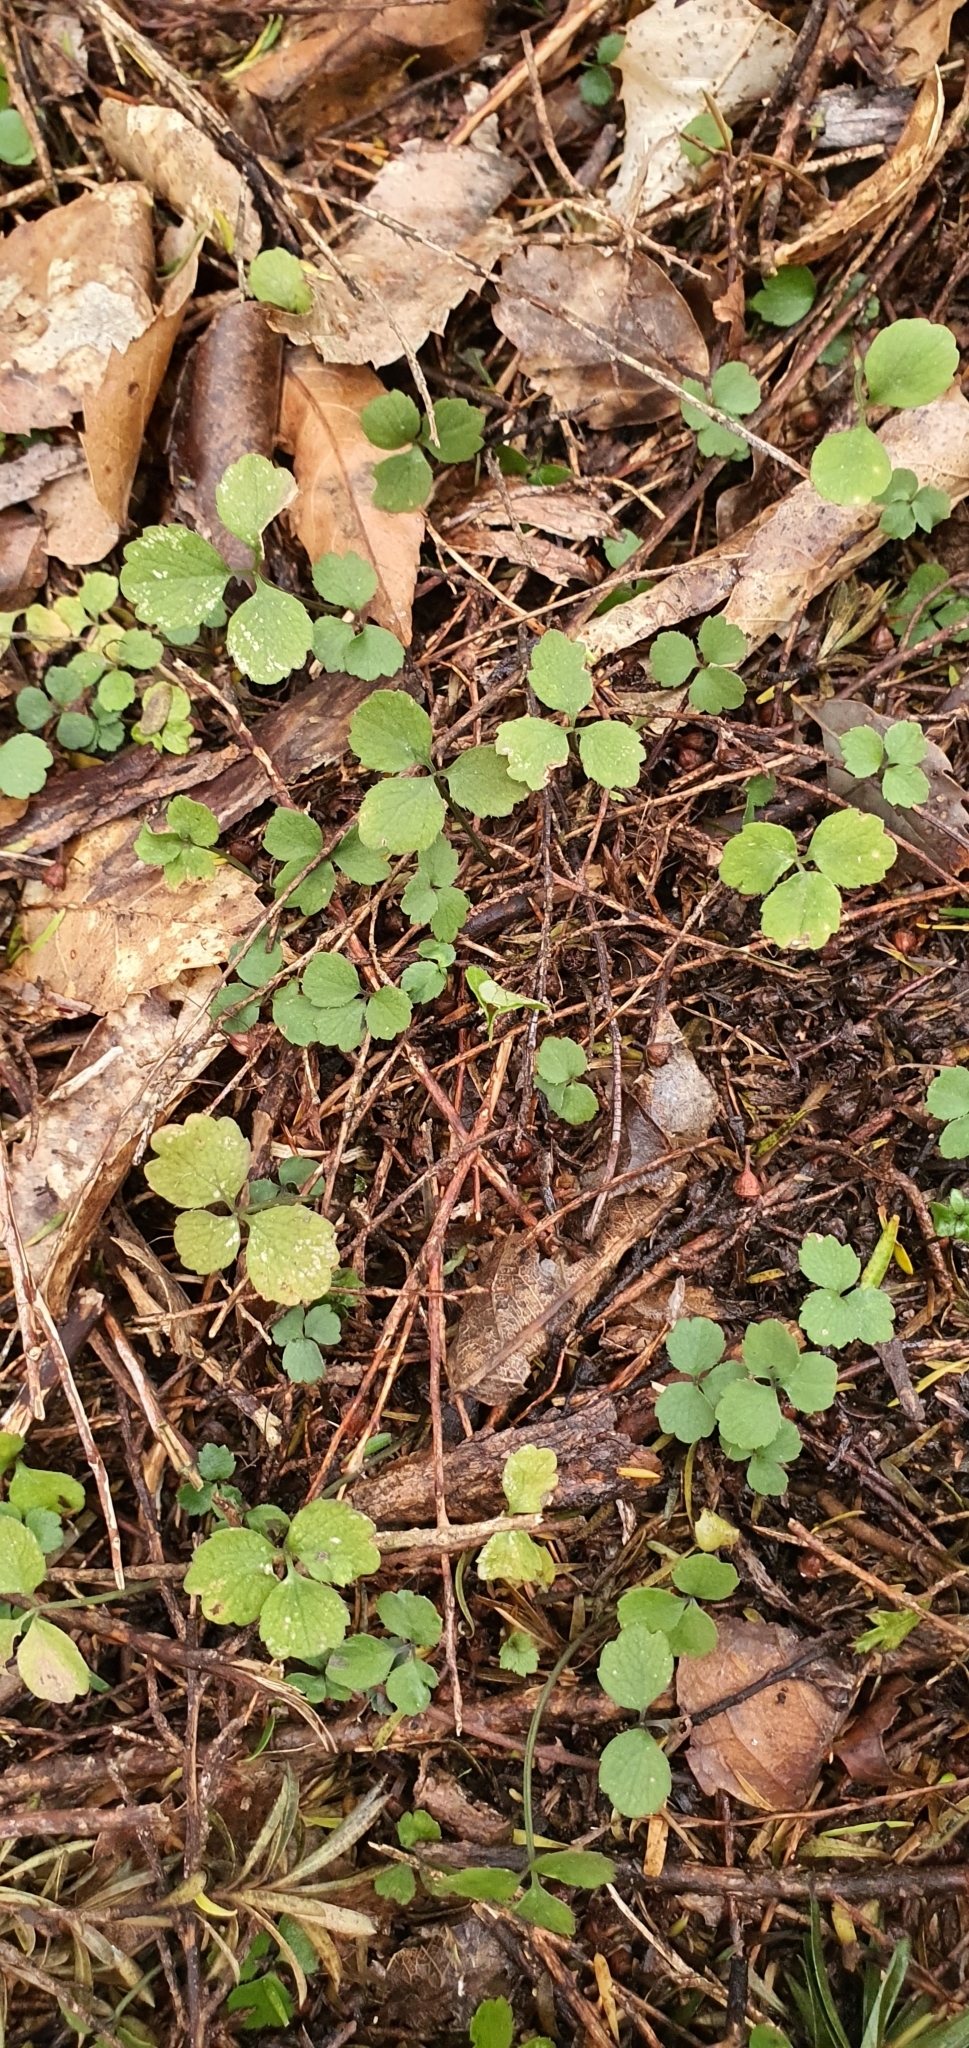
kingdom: Plantae
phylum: Tracheophyta
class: Magnoliopsida
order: Apiales
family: Apiaceae
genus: Azorella
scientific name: Azorella hookeri
